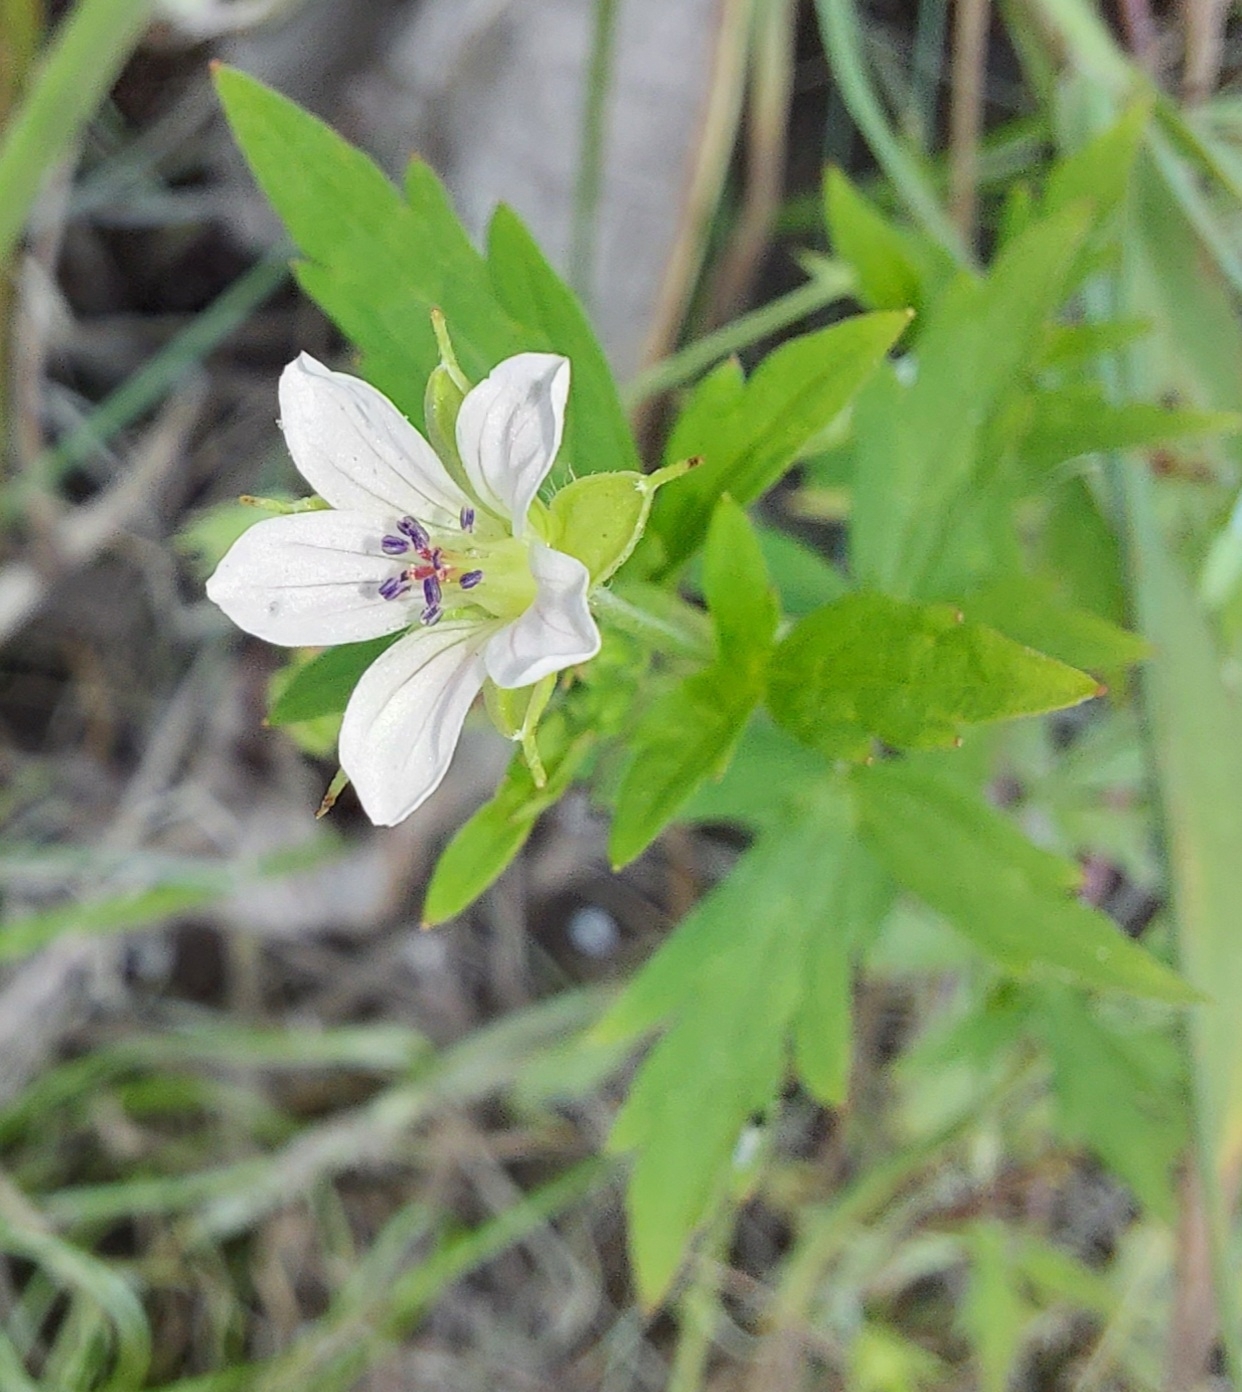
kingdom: Plantae
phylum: Tracheophyta
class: Magnoliopsida
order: Geraniales
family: Geraniaceae
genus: Geranium
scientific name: Geranium sibiricum
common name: Siberian crane's-bill
